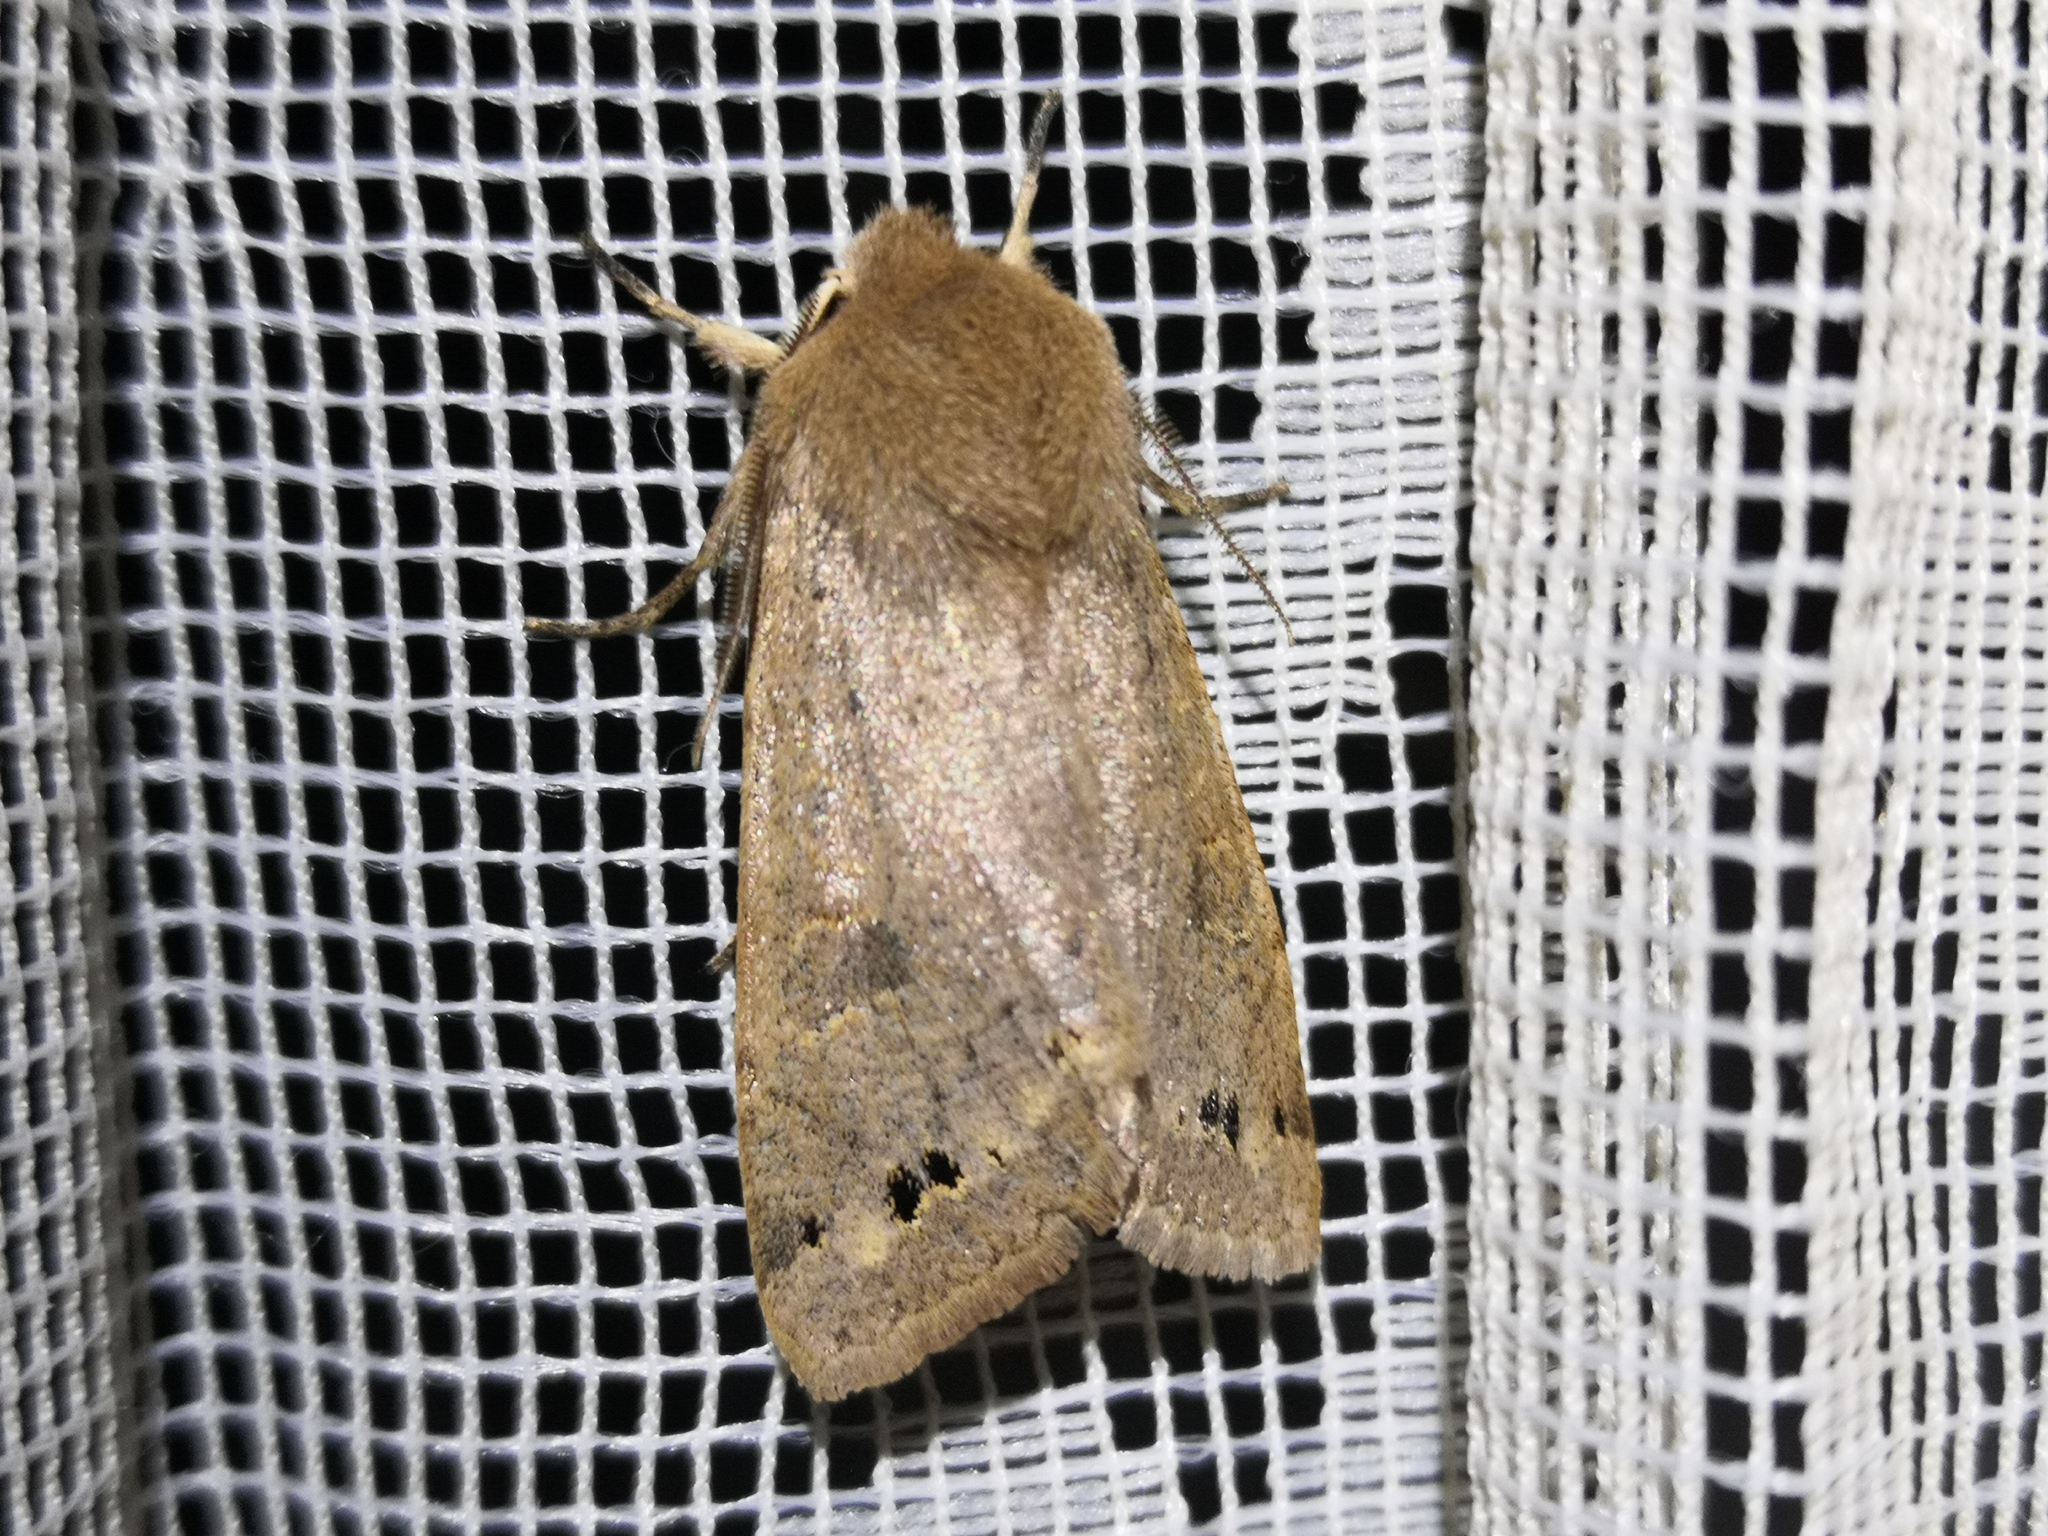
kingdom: Animalia
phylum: Arthropoda
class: Insecta
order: Lepidoptera
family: Noctuidae
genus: Anorthoa
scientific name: Anorthoa munda
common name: Twin-spotted quaker
